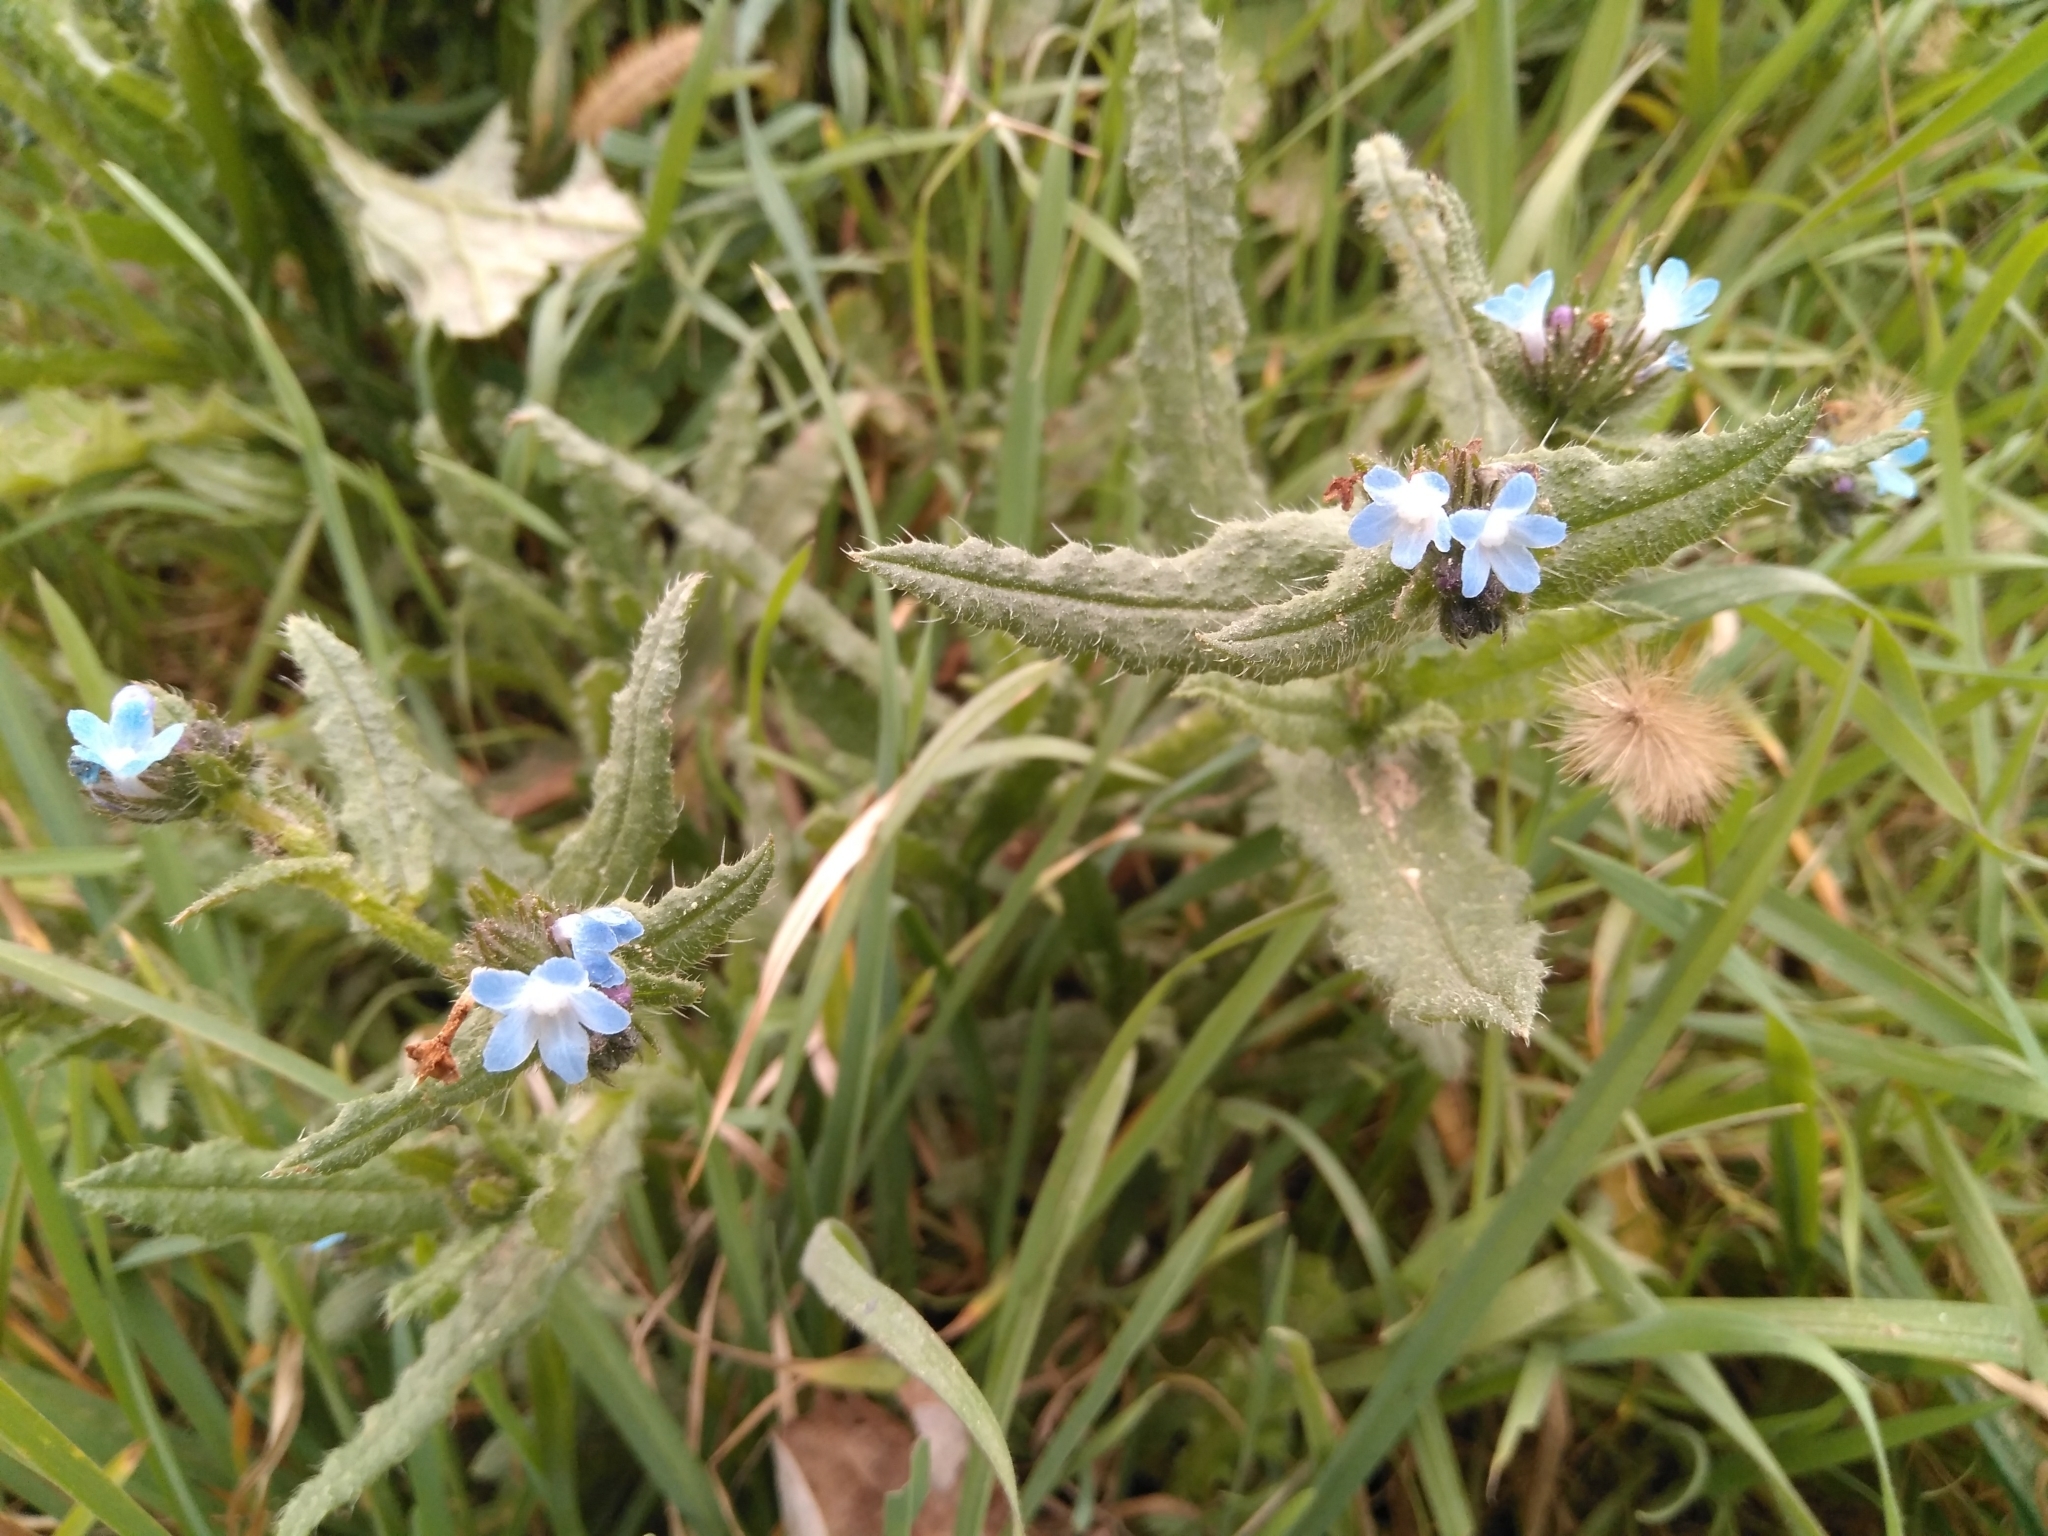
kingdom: Plantae
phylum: Tracheophyta
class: Magnoliopsida
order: Boraginales
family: Boraginaceae
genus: Lycopsis
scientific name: Lycopsis arvensis
